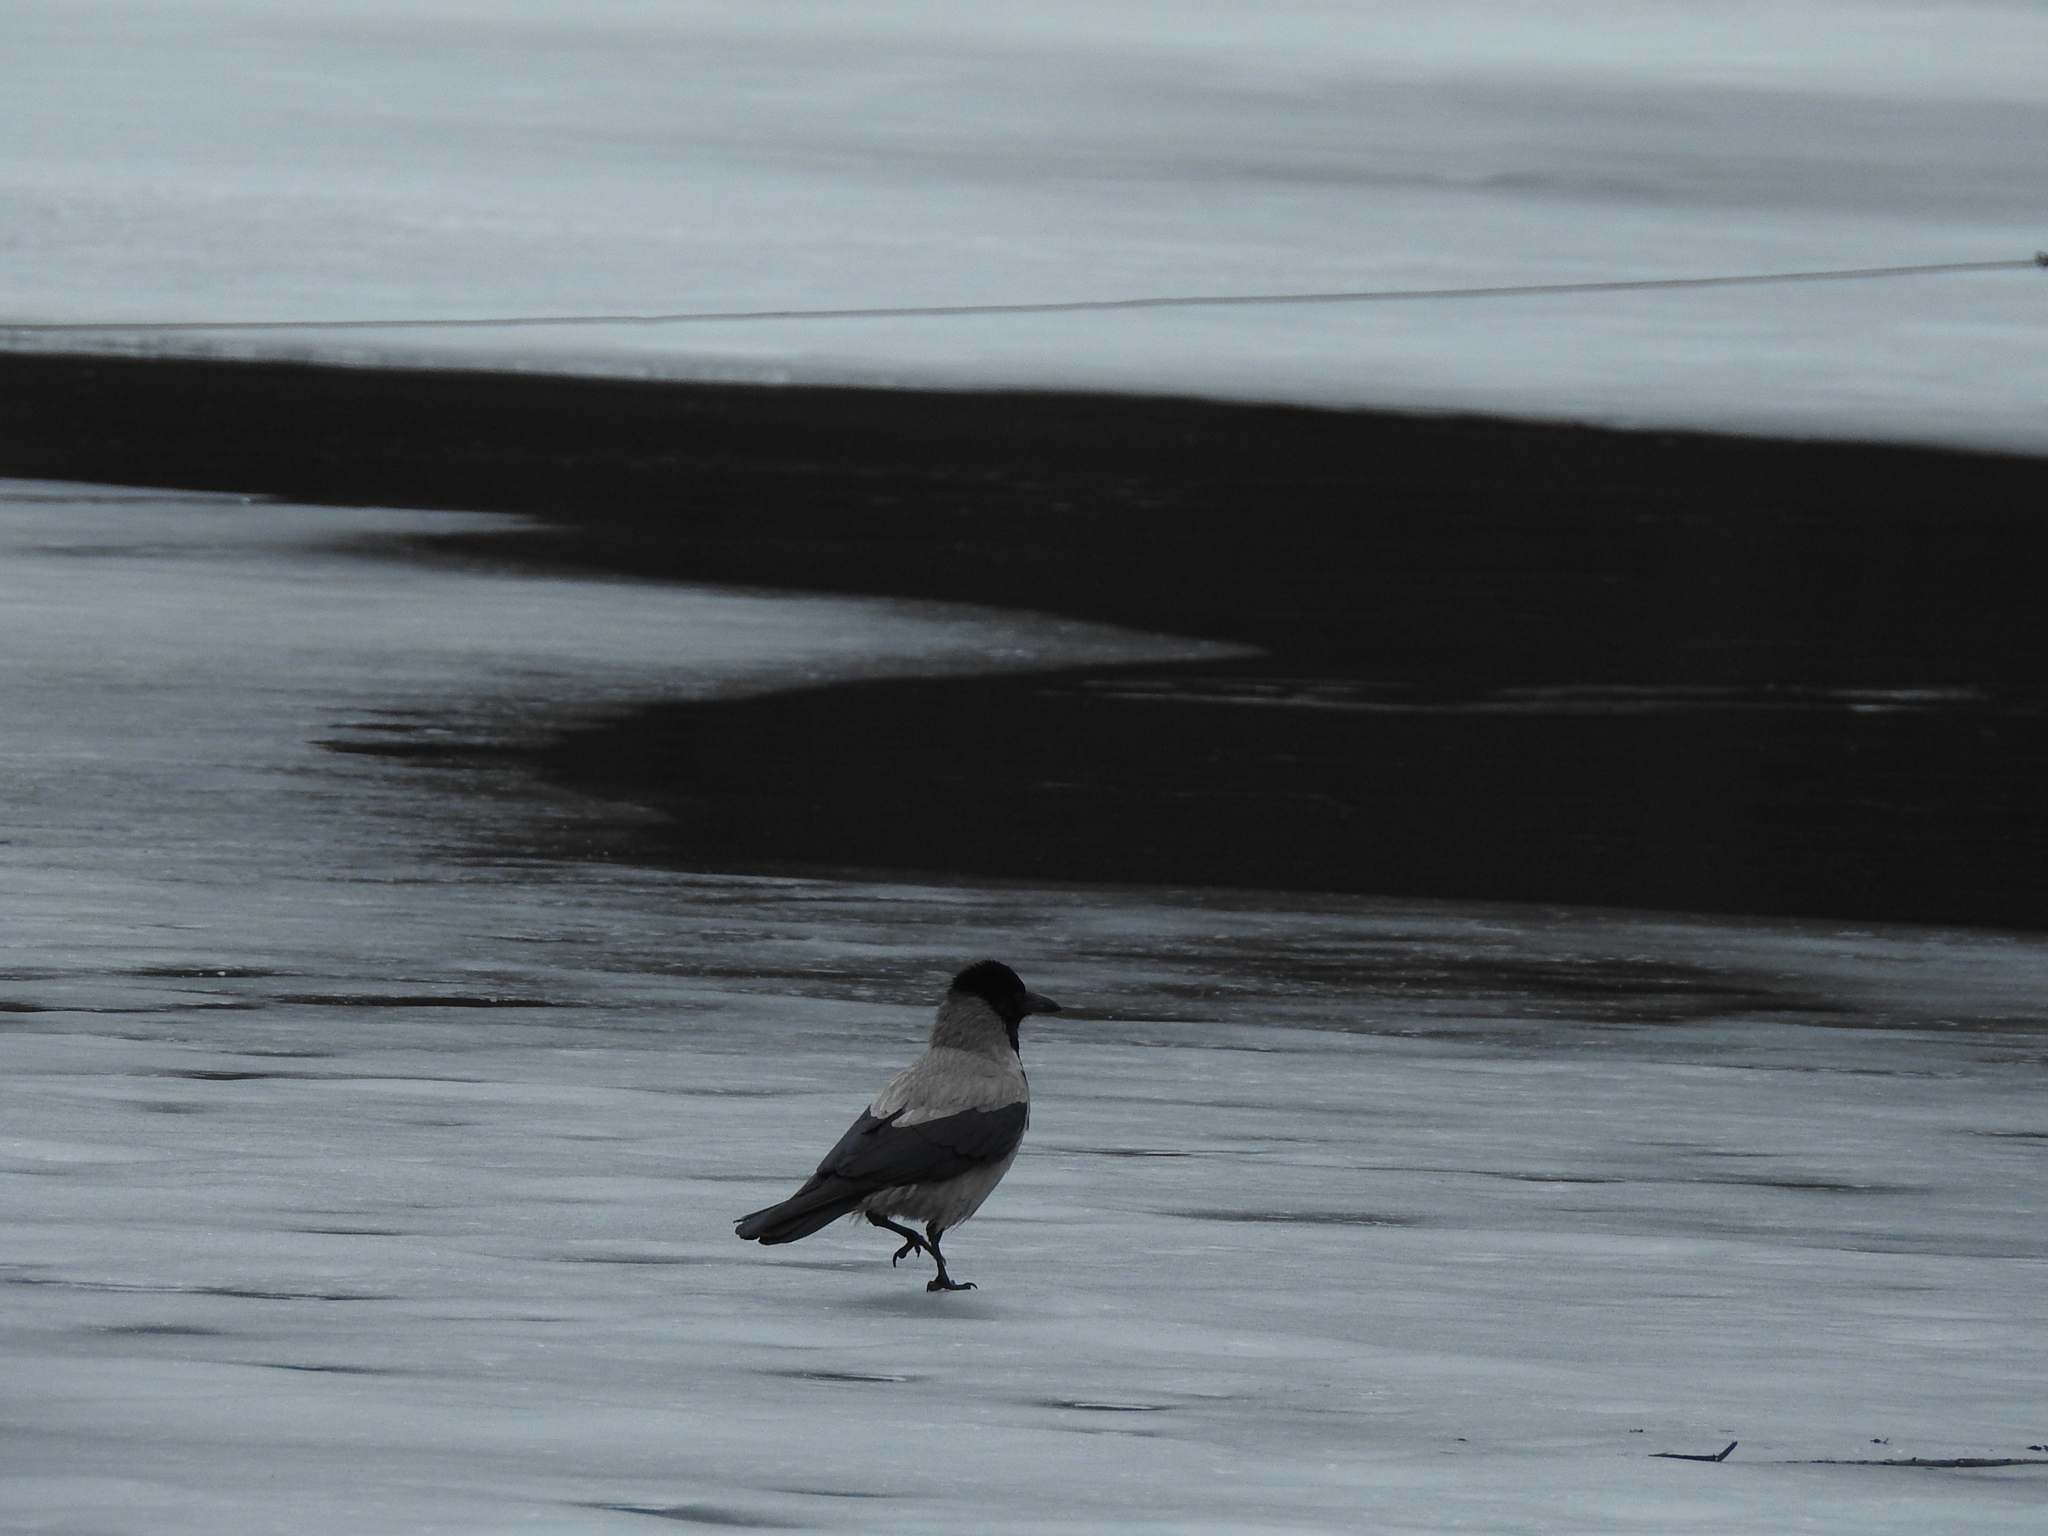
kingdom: Animalia
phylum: Chordata
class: Aves
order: Passeriformes
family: Corvidae
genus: Corvus
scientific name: Corvus cornix
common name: Hooded crow
